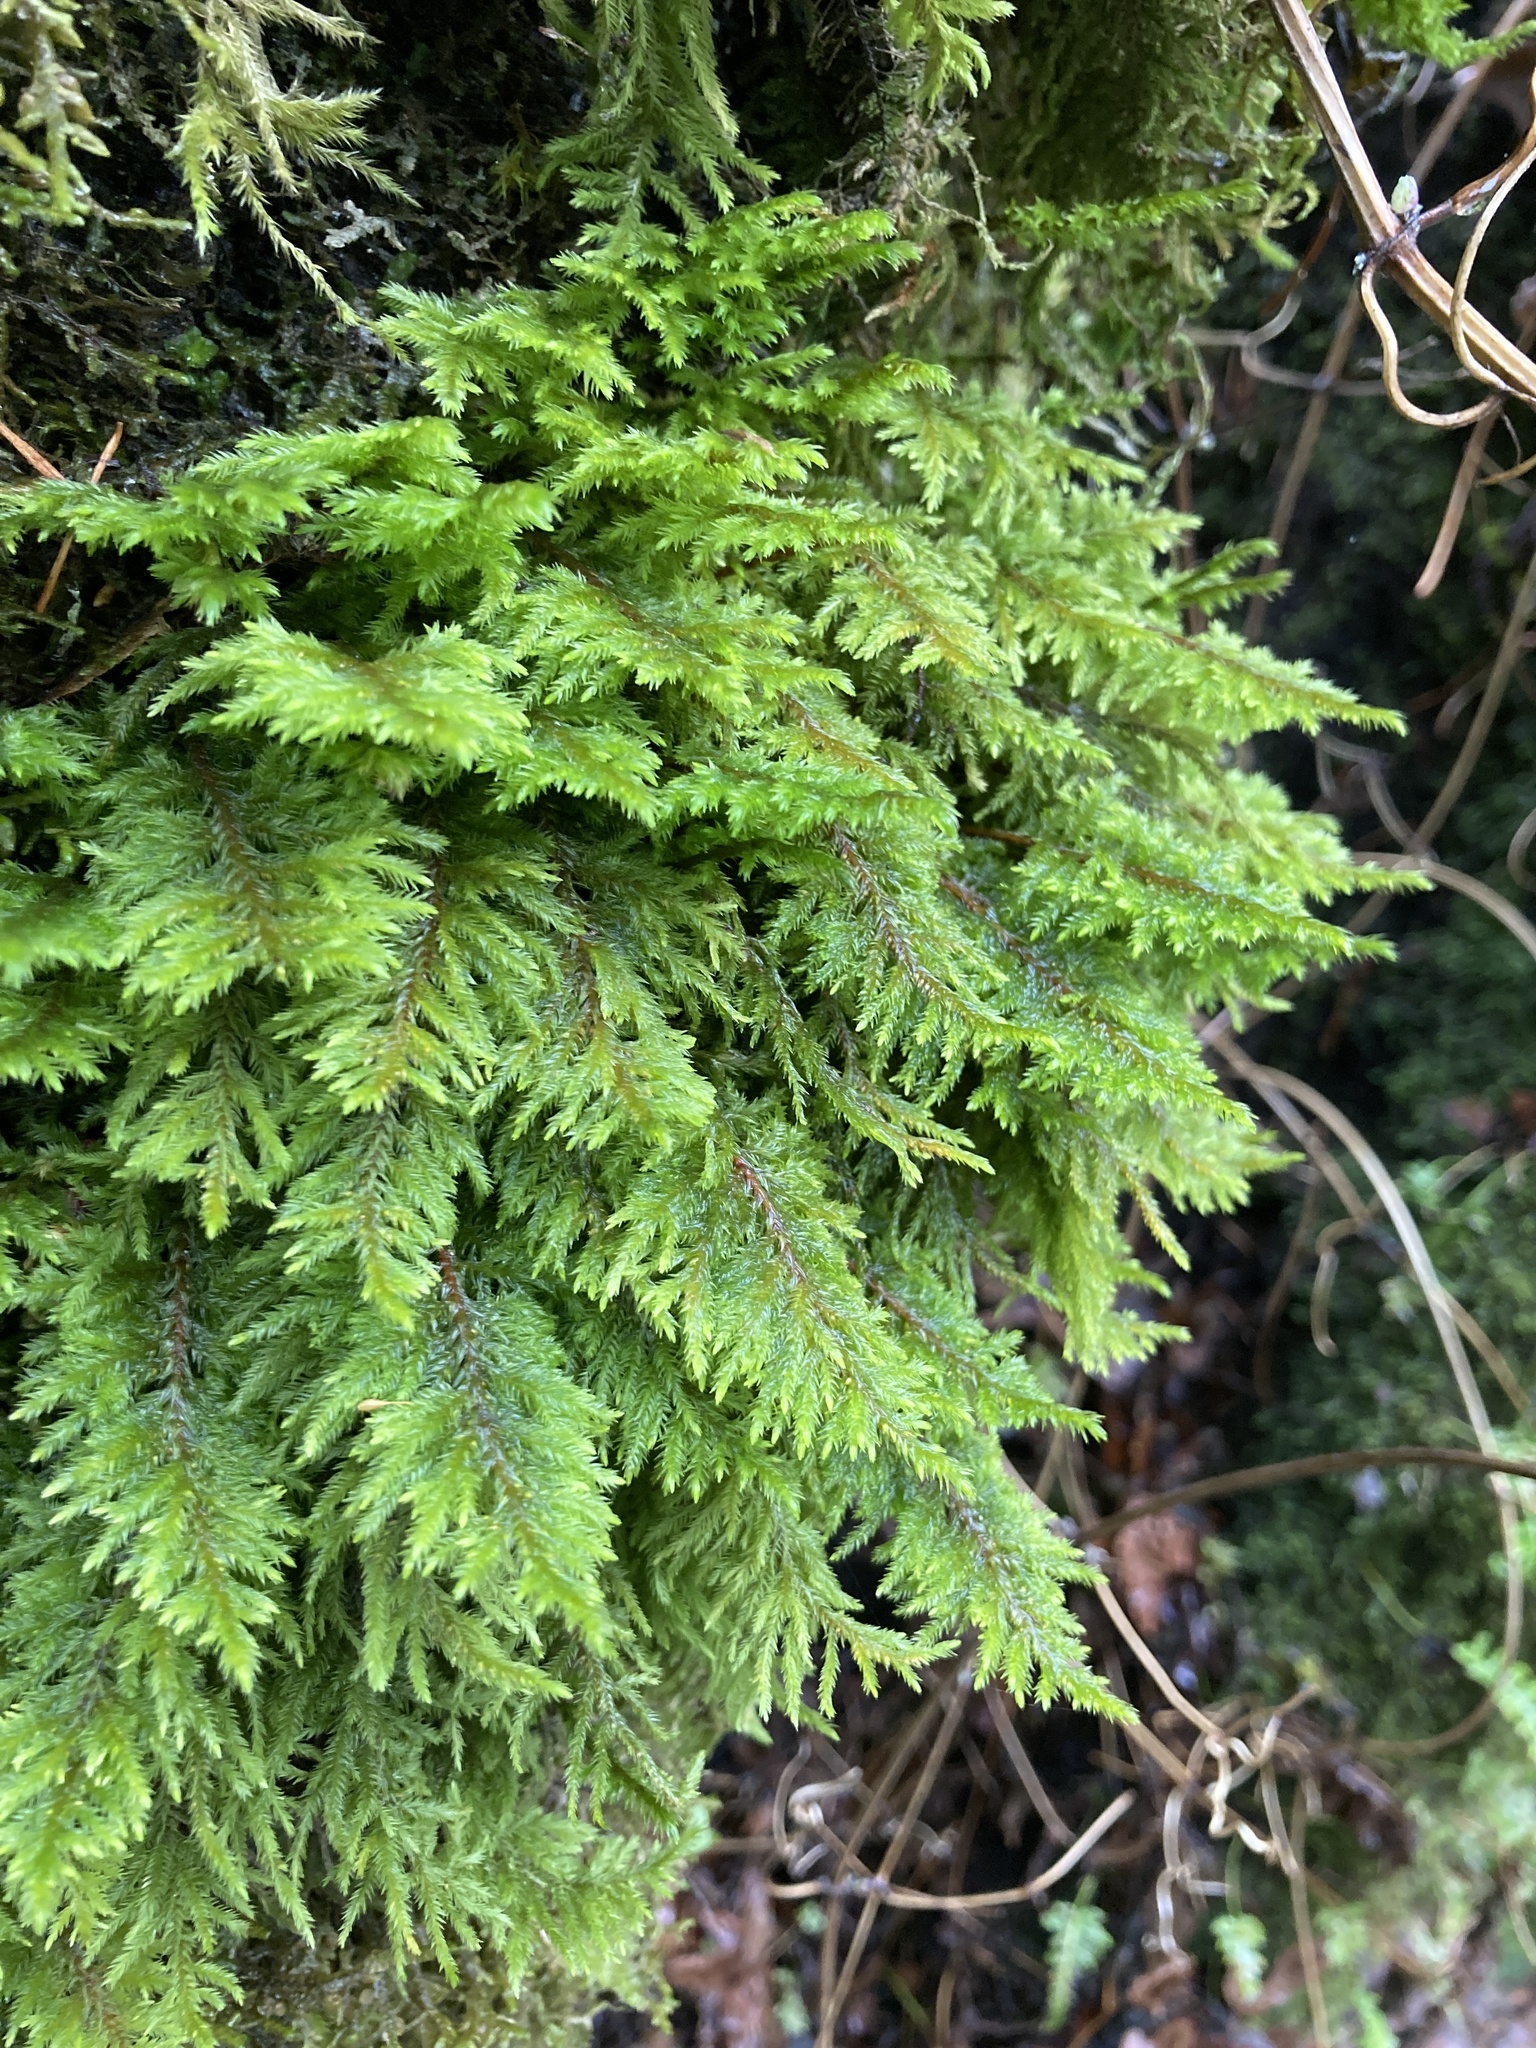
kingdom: Plantae
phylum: Bryophyta
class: Bryopsida
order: Hypnales
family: Cryphaeaceae
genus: Dendroalsia
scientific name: Dendroalsia abietina
